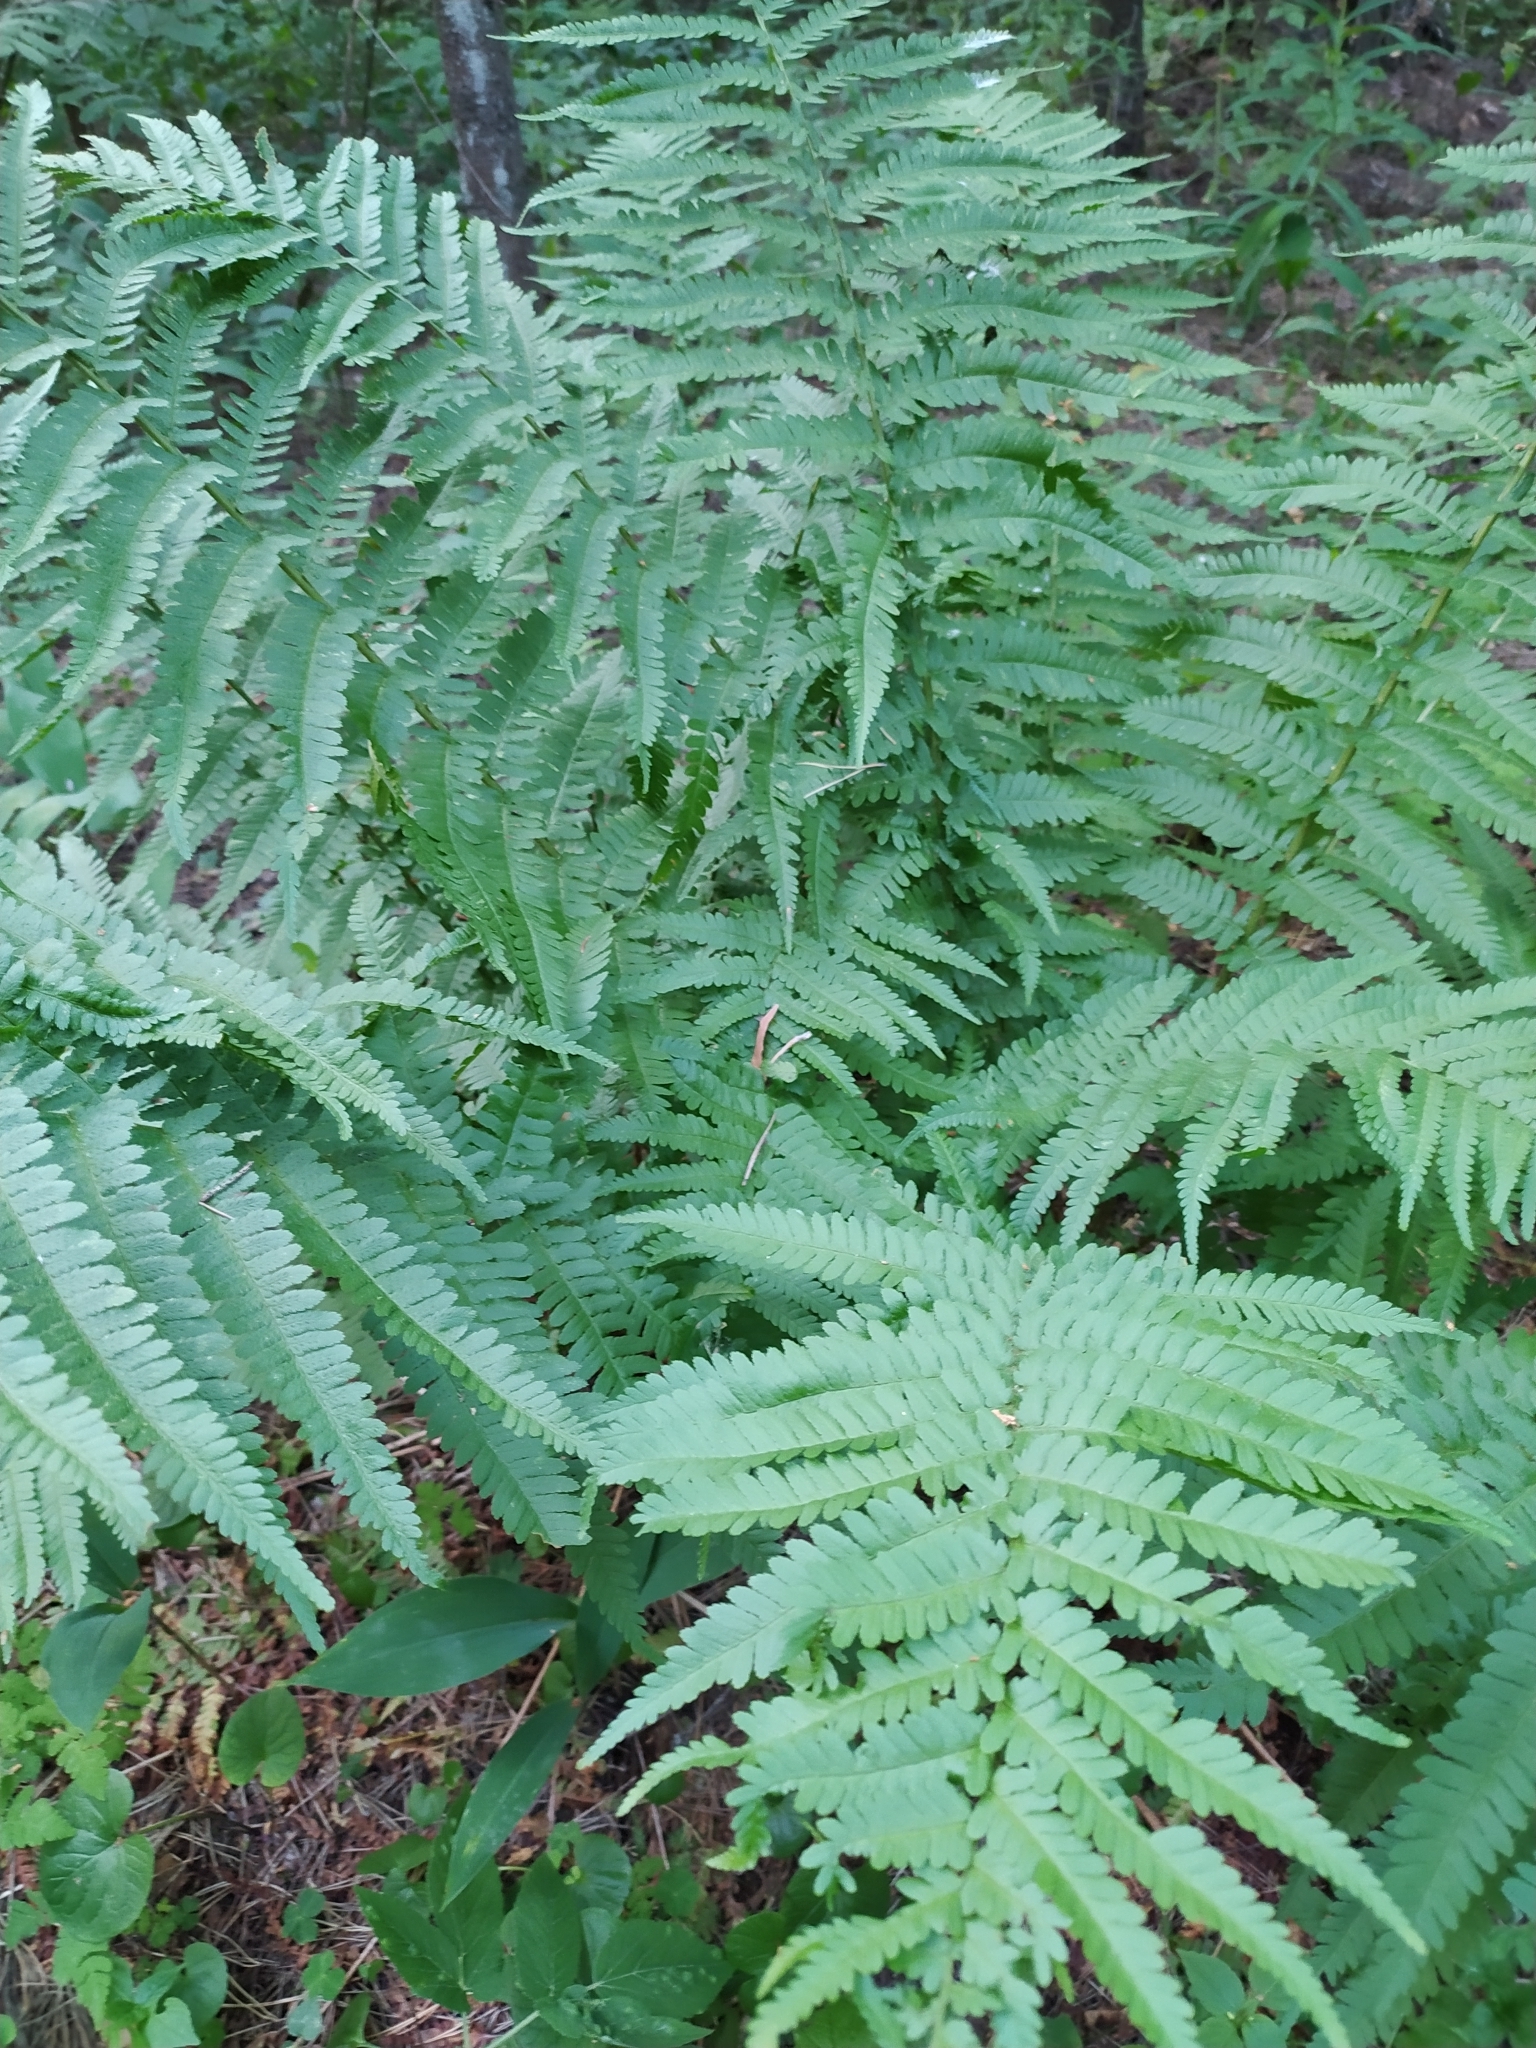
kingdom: Plantae
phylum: Tracheophyta
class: Polypodiopsida
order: Polypodiales
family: Dryopteridaceae
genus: Dryopteris
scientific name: Dryopteris filix-mas
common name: Male fern
